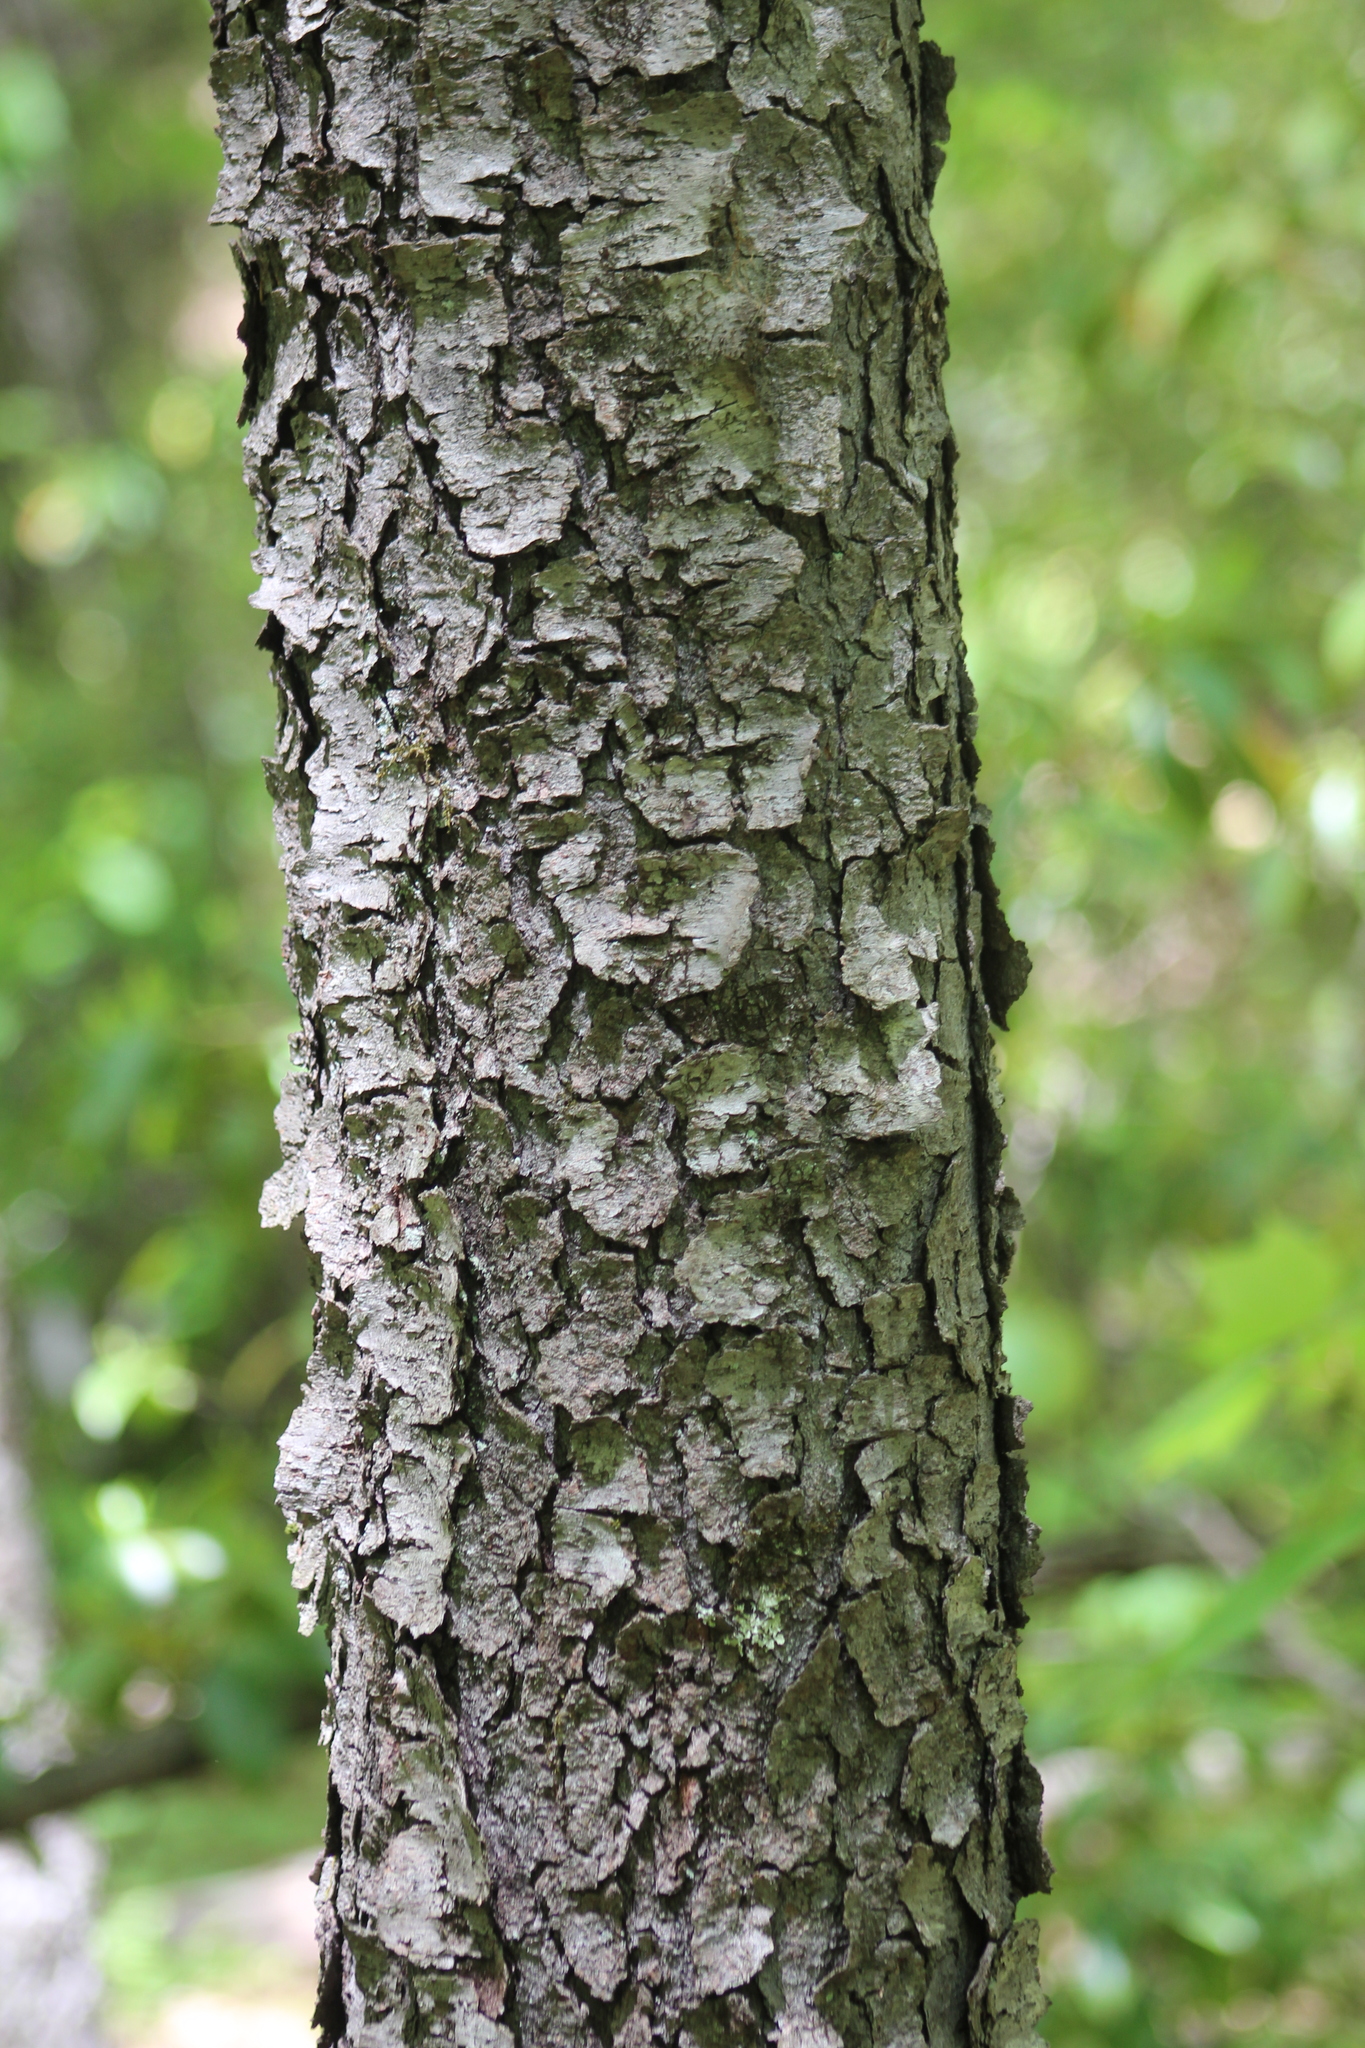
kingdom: Plantae
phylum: Tracheophyta
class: Magnoliopsida
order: Rosales
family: Rosaceae
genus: Prunus
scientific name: Prunus serotina
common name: Black cherry
